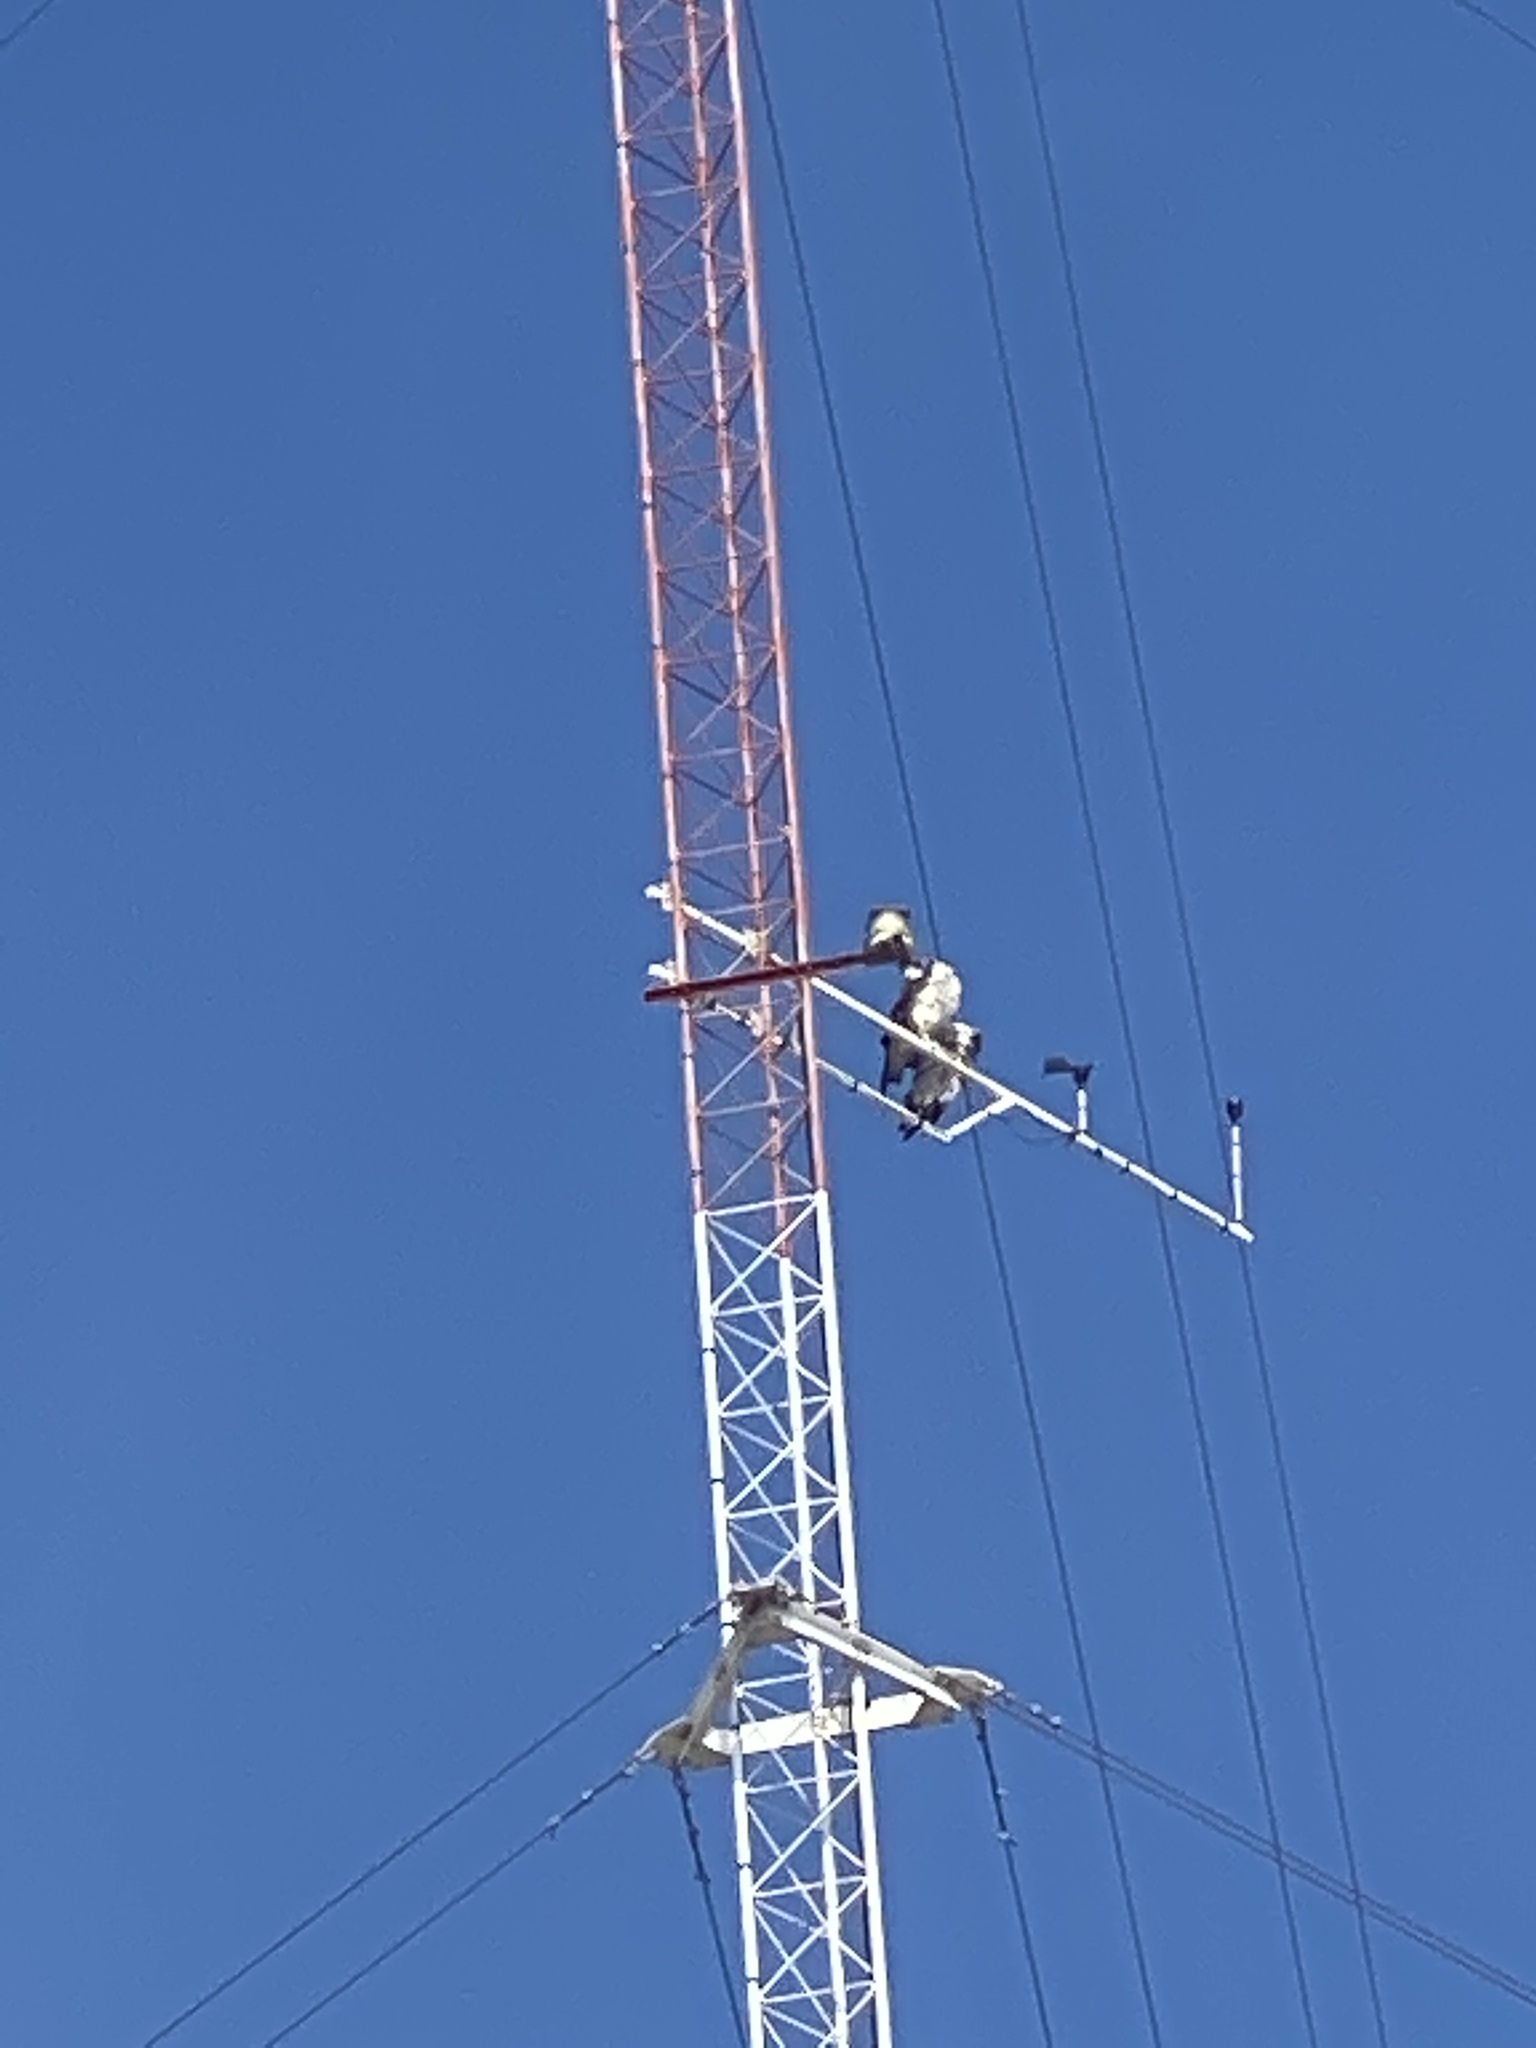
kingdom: Animalia
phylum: Chordata
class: Aves
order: Accipitriformes
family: Pandionidae
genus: Pandion
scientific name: Pandion haliaetus
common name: Osprey
